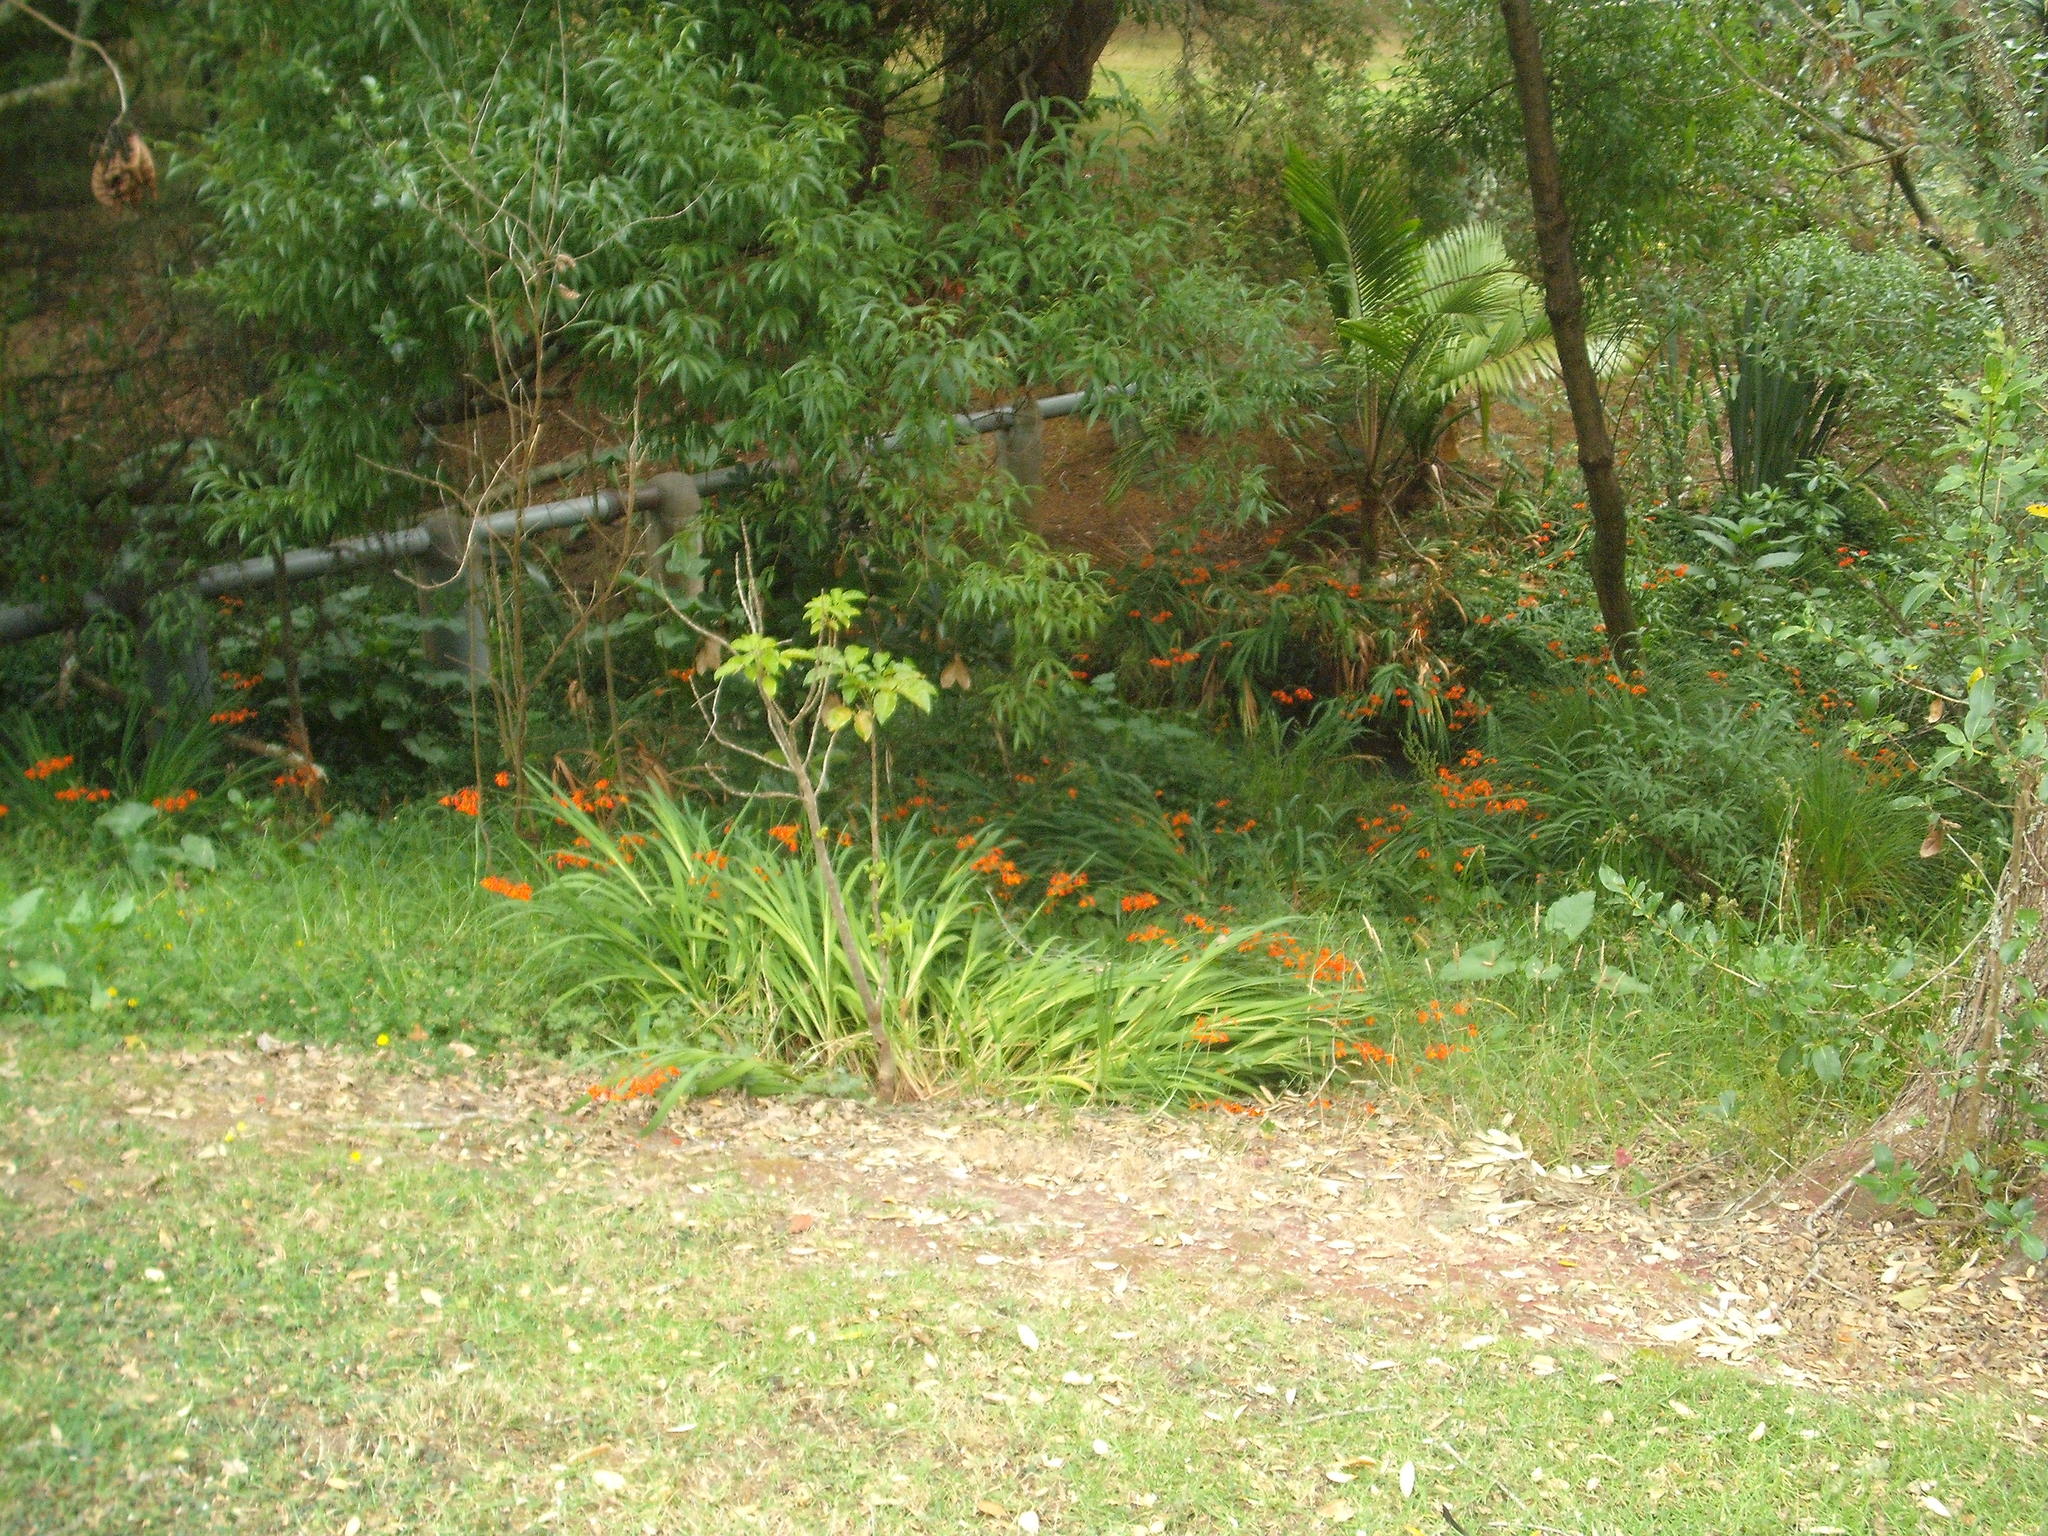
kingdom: Plantae
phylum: Tracheophyta
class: Liliopsida
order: Asparagales
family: Iridaceae
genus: Crocosmia
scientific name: Crocosmia crocosmiiflora
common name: Montbretia
